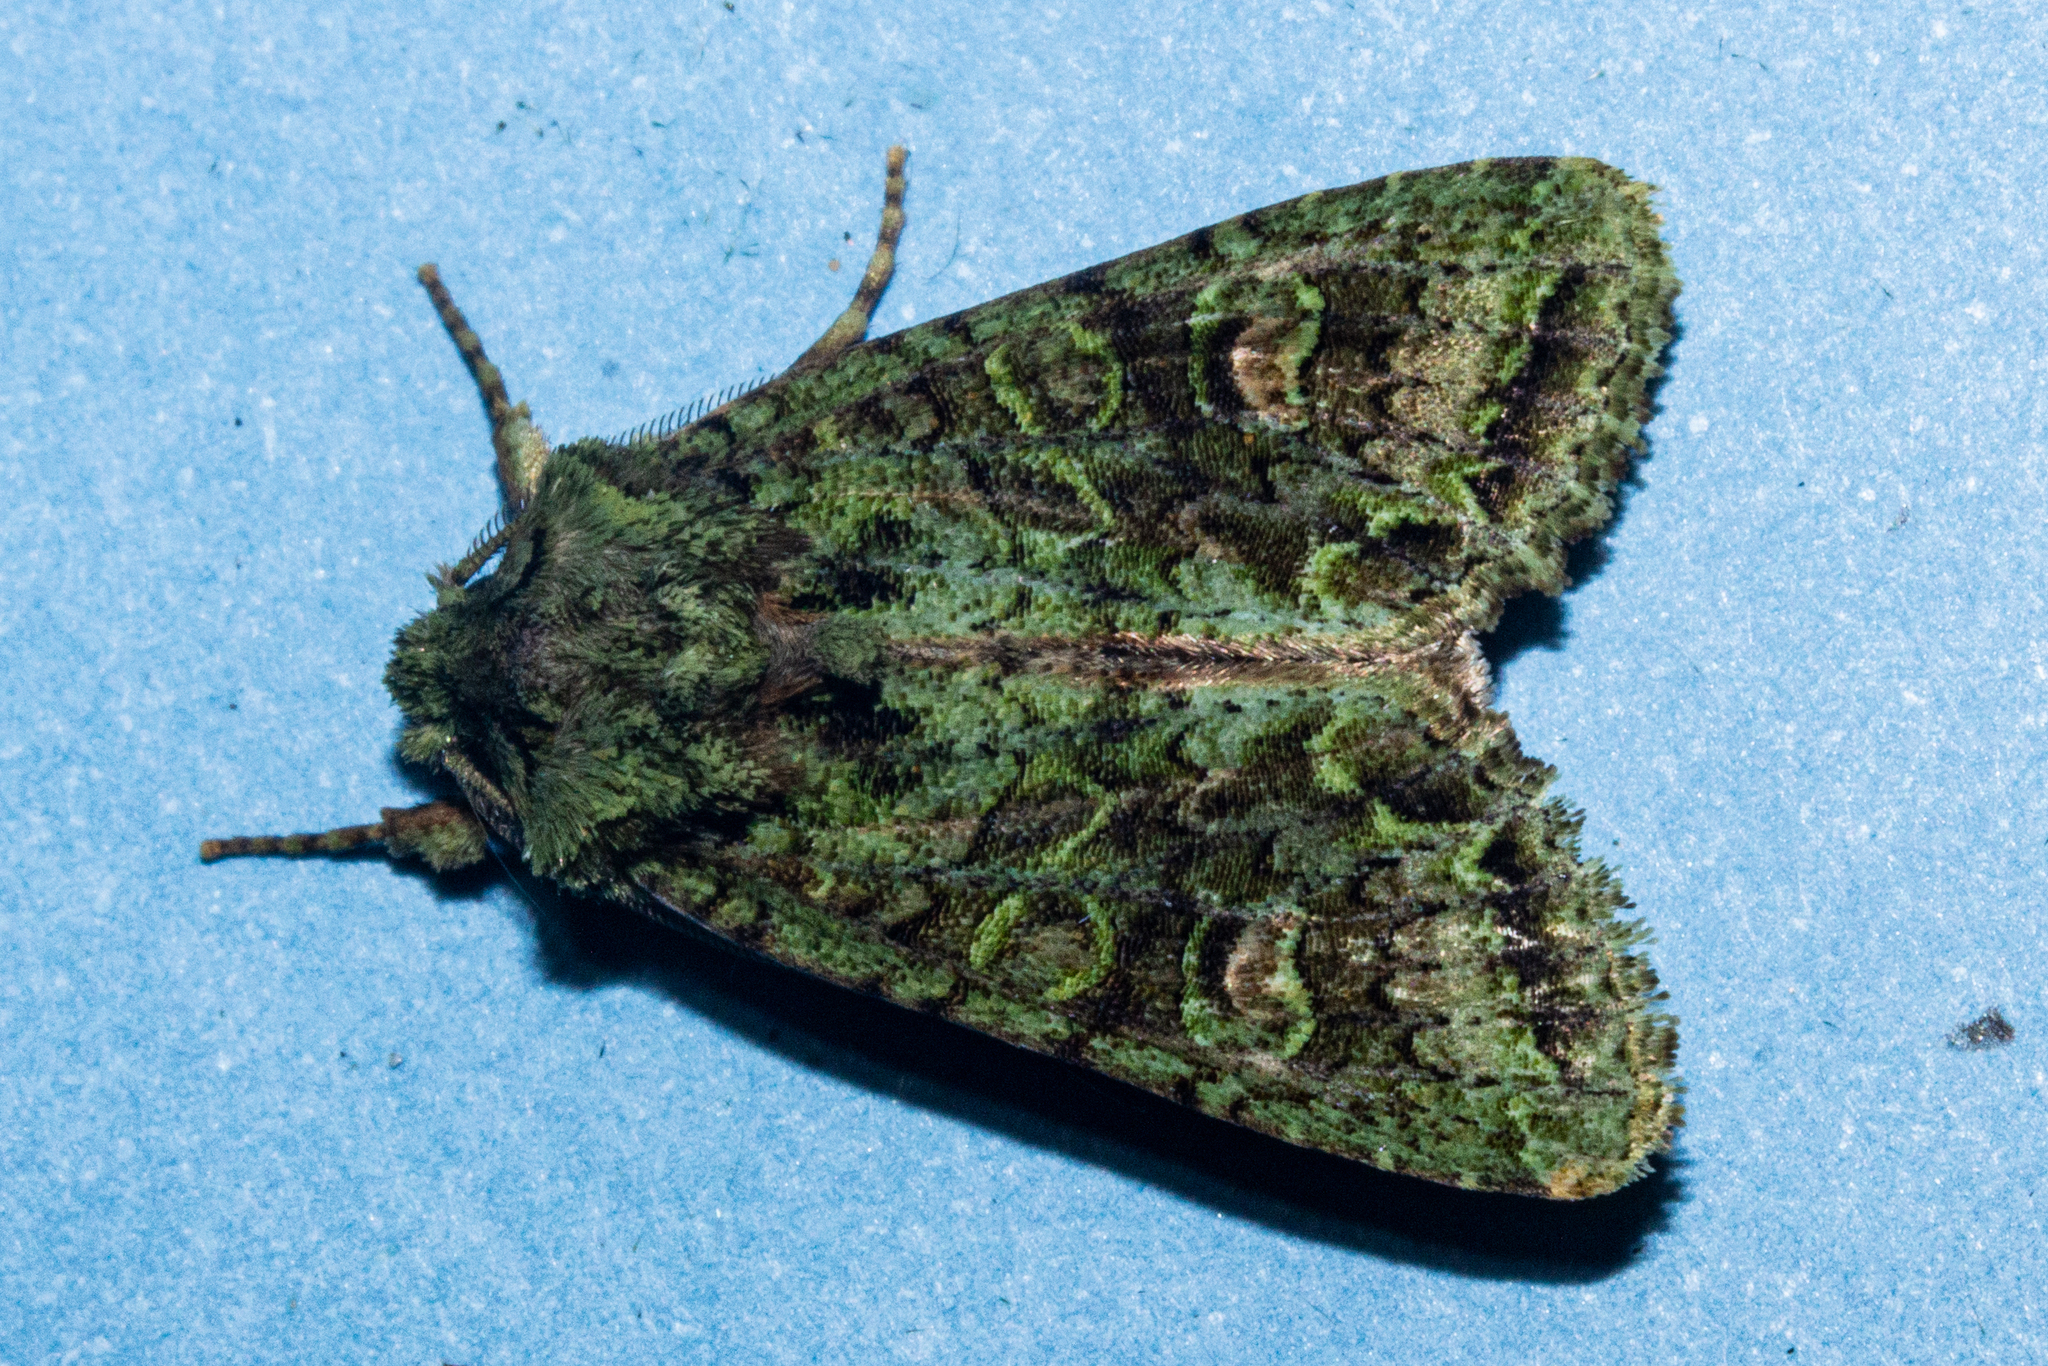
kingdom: Animalia
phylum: Arthropoda
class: Insecta
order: Lepidoptera
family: Noctuidae
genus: Ichneutica
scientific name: Ichneutica
